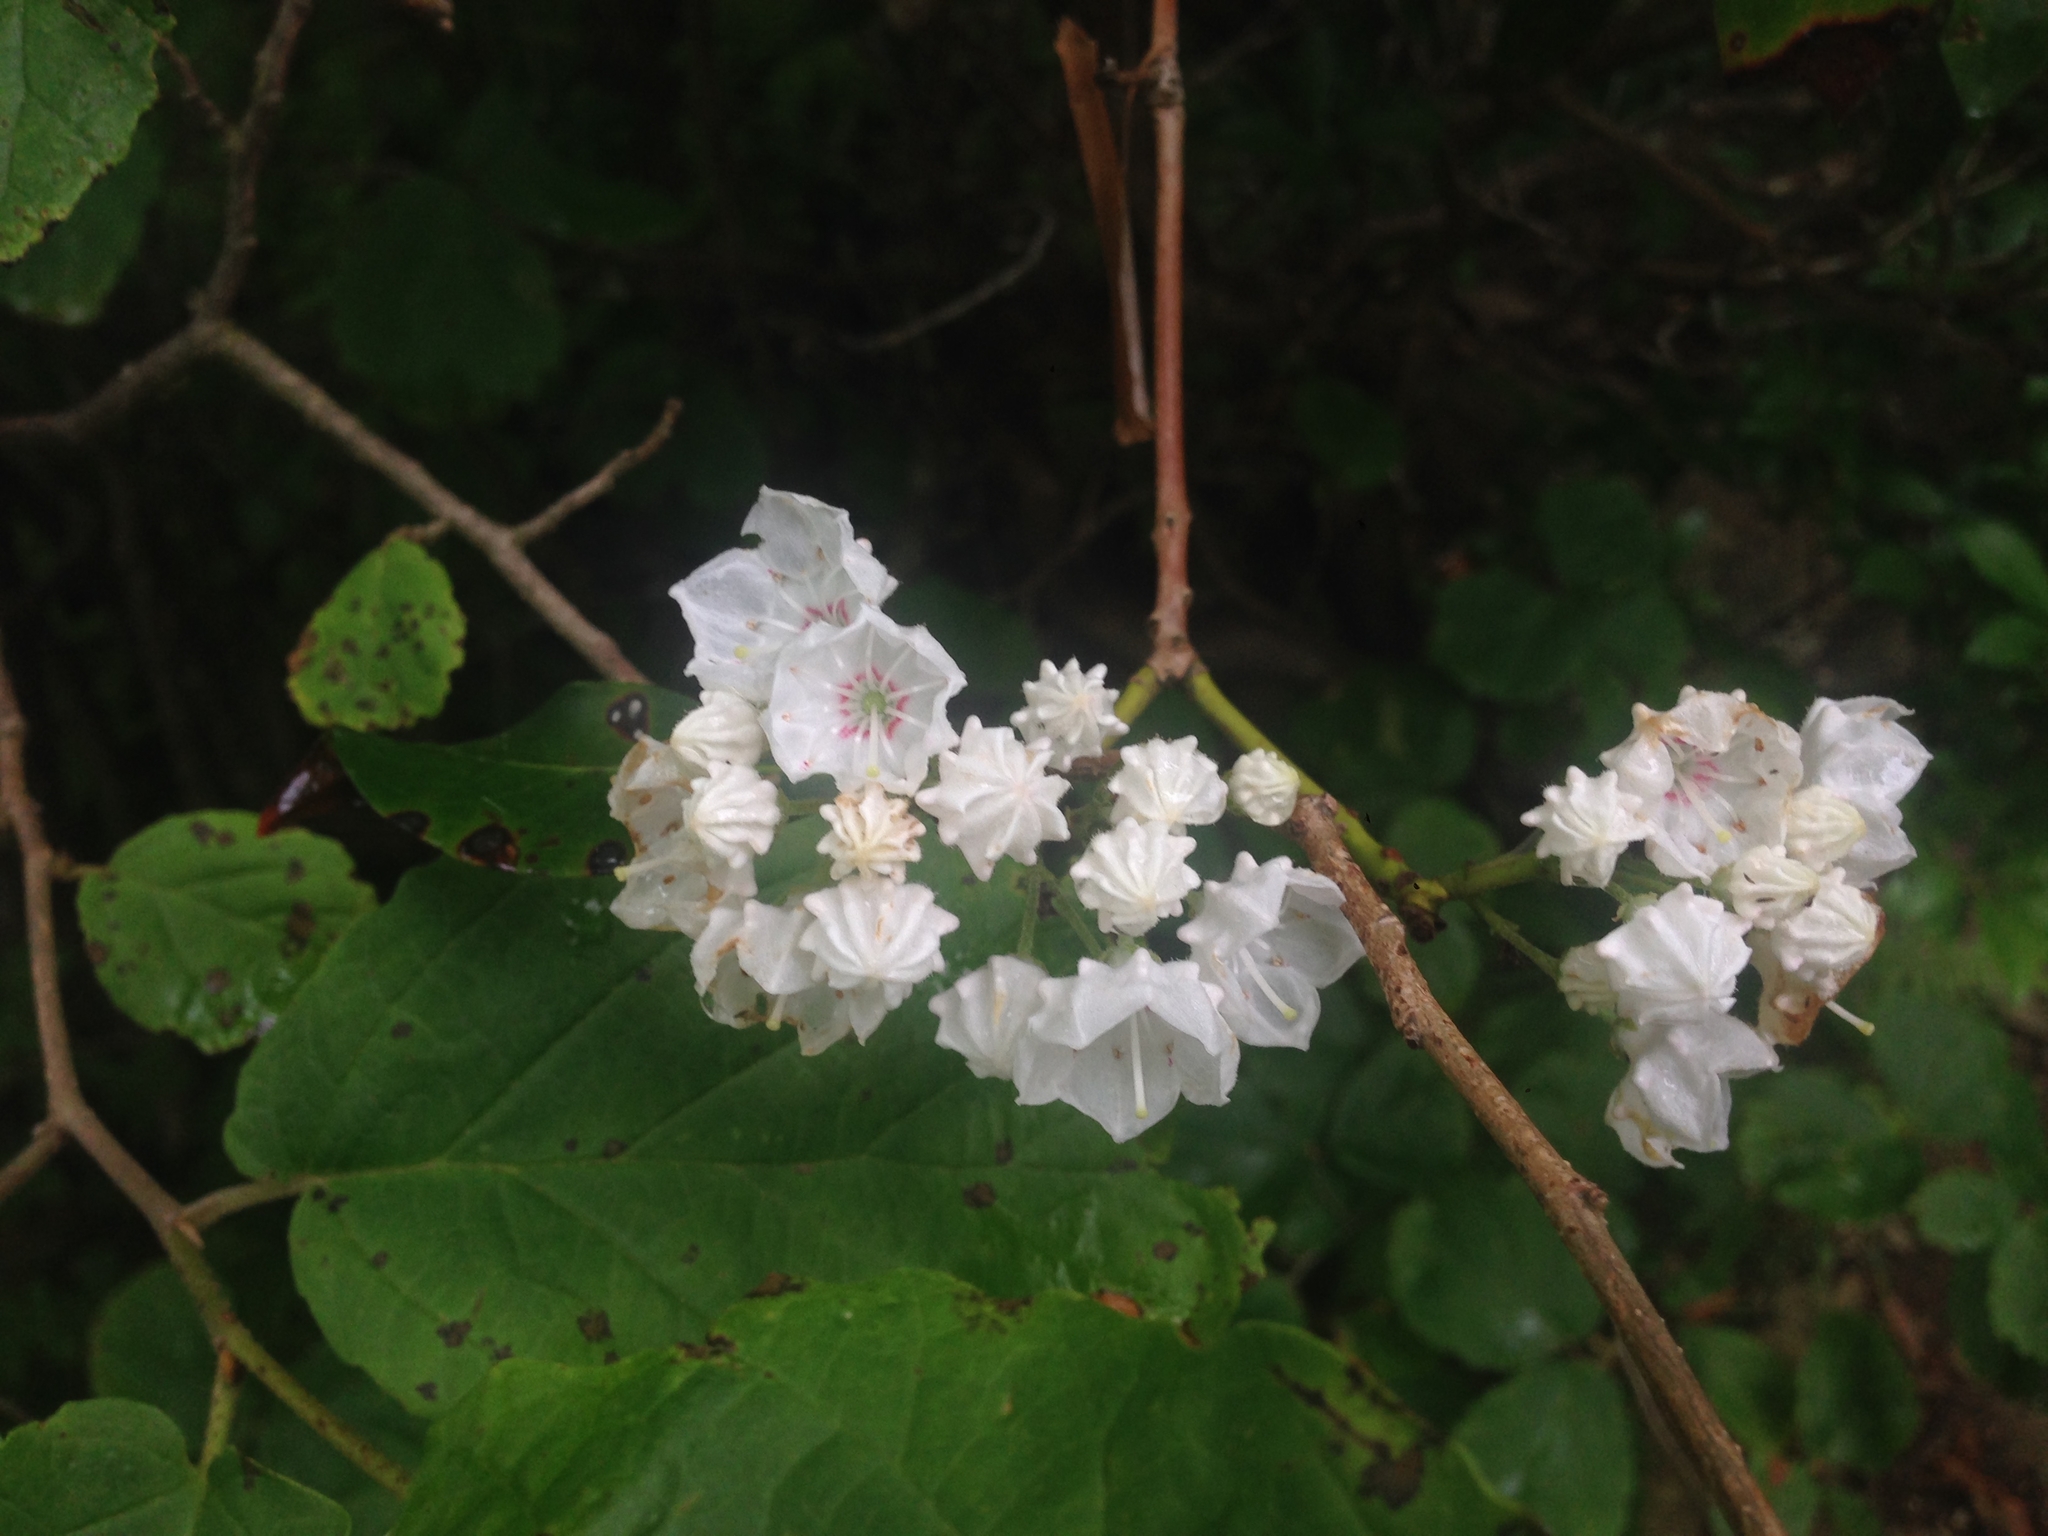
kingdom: Plantae
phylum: Tracheophyta
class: Magnoliopsida
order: Ericales
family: Ericaceae
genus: Kalmia
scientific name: Kalmia latifolia
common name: Mountain-laurel
